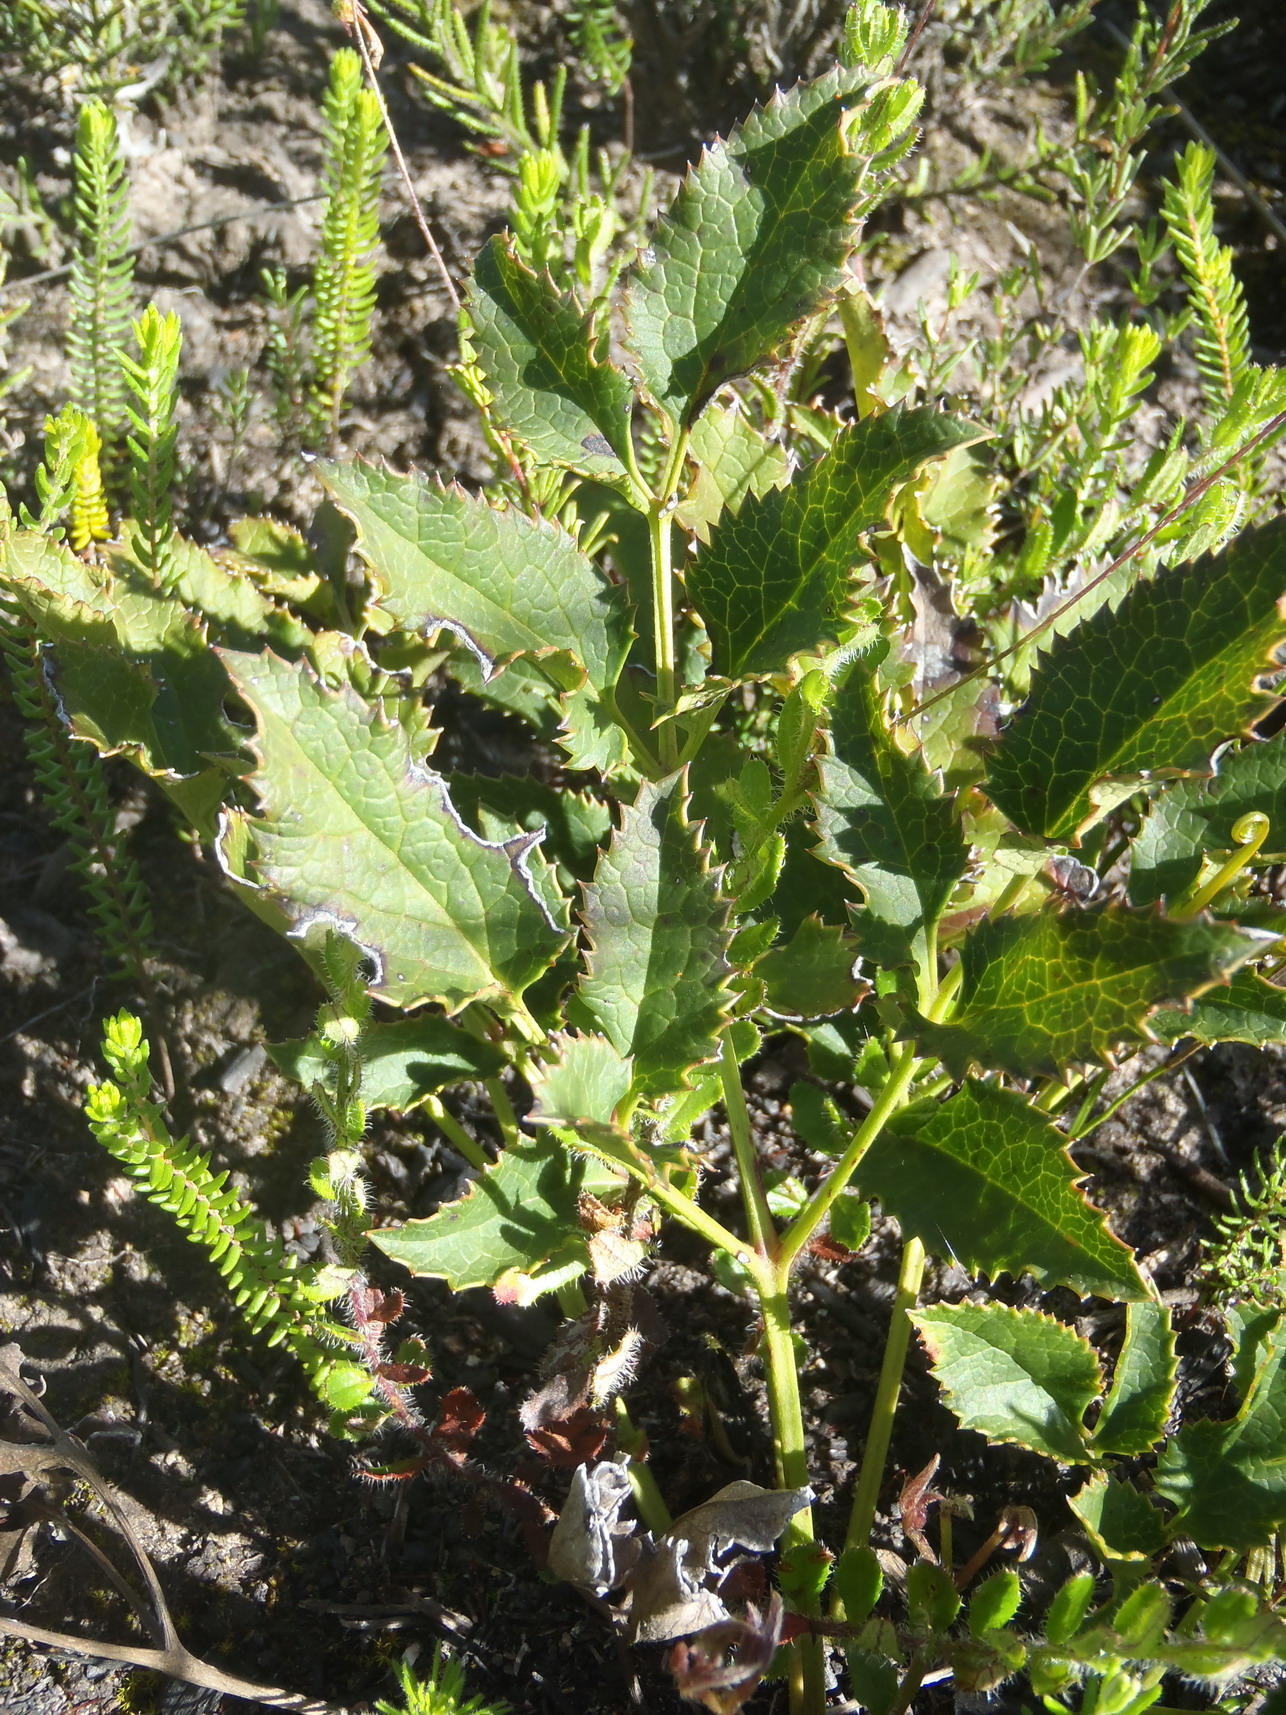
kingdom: Plantae
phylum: Tracheophyta
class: Magnoliopsida
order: Ranunculales
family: Ranunculaceae
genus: Knowltonia
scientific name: Knowltonia filia
